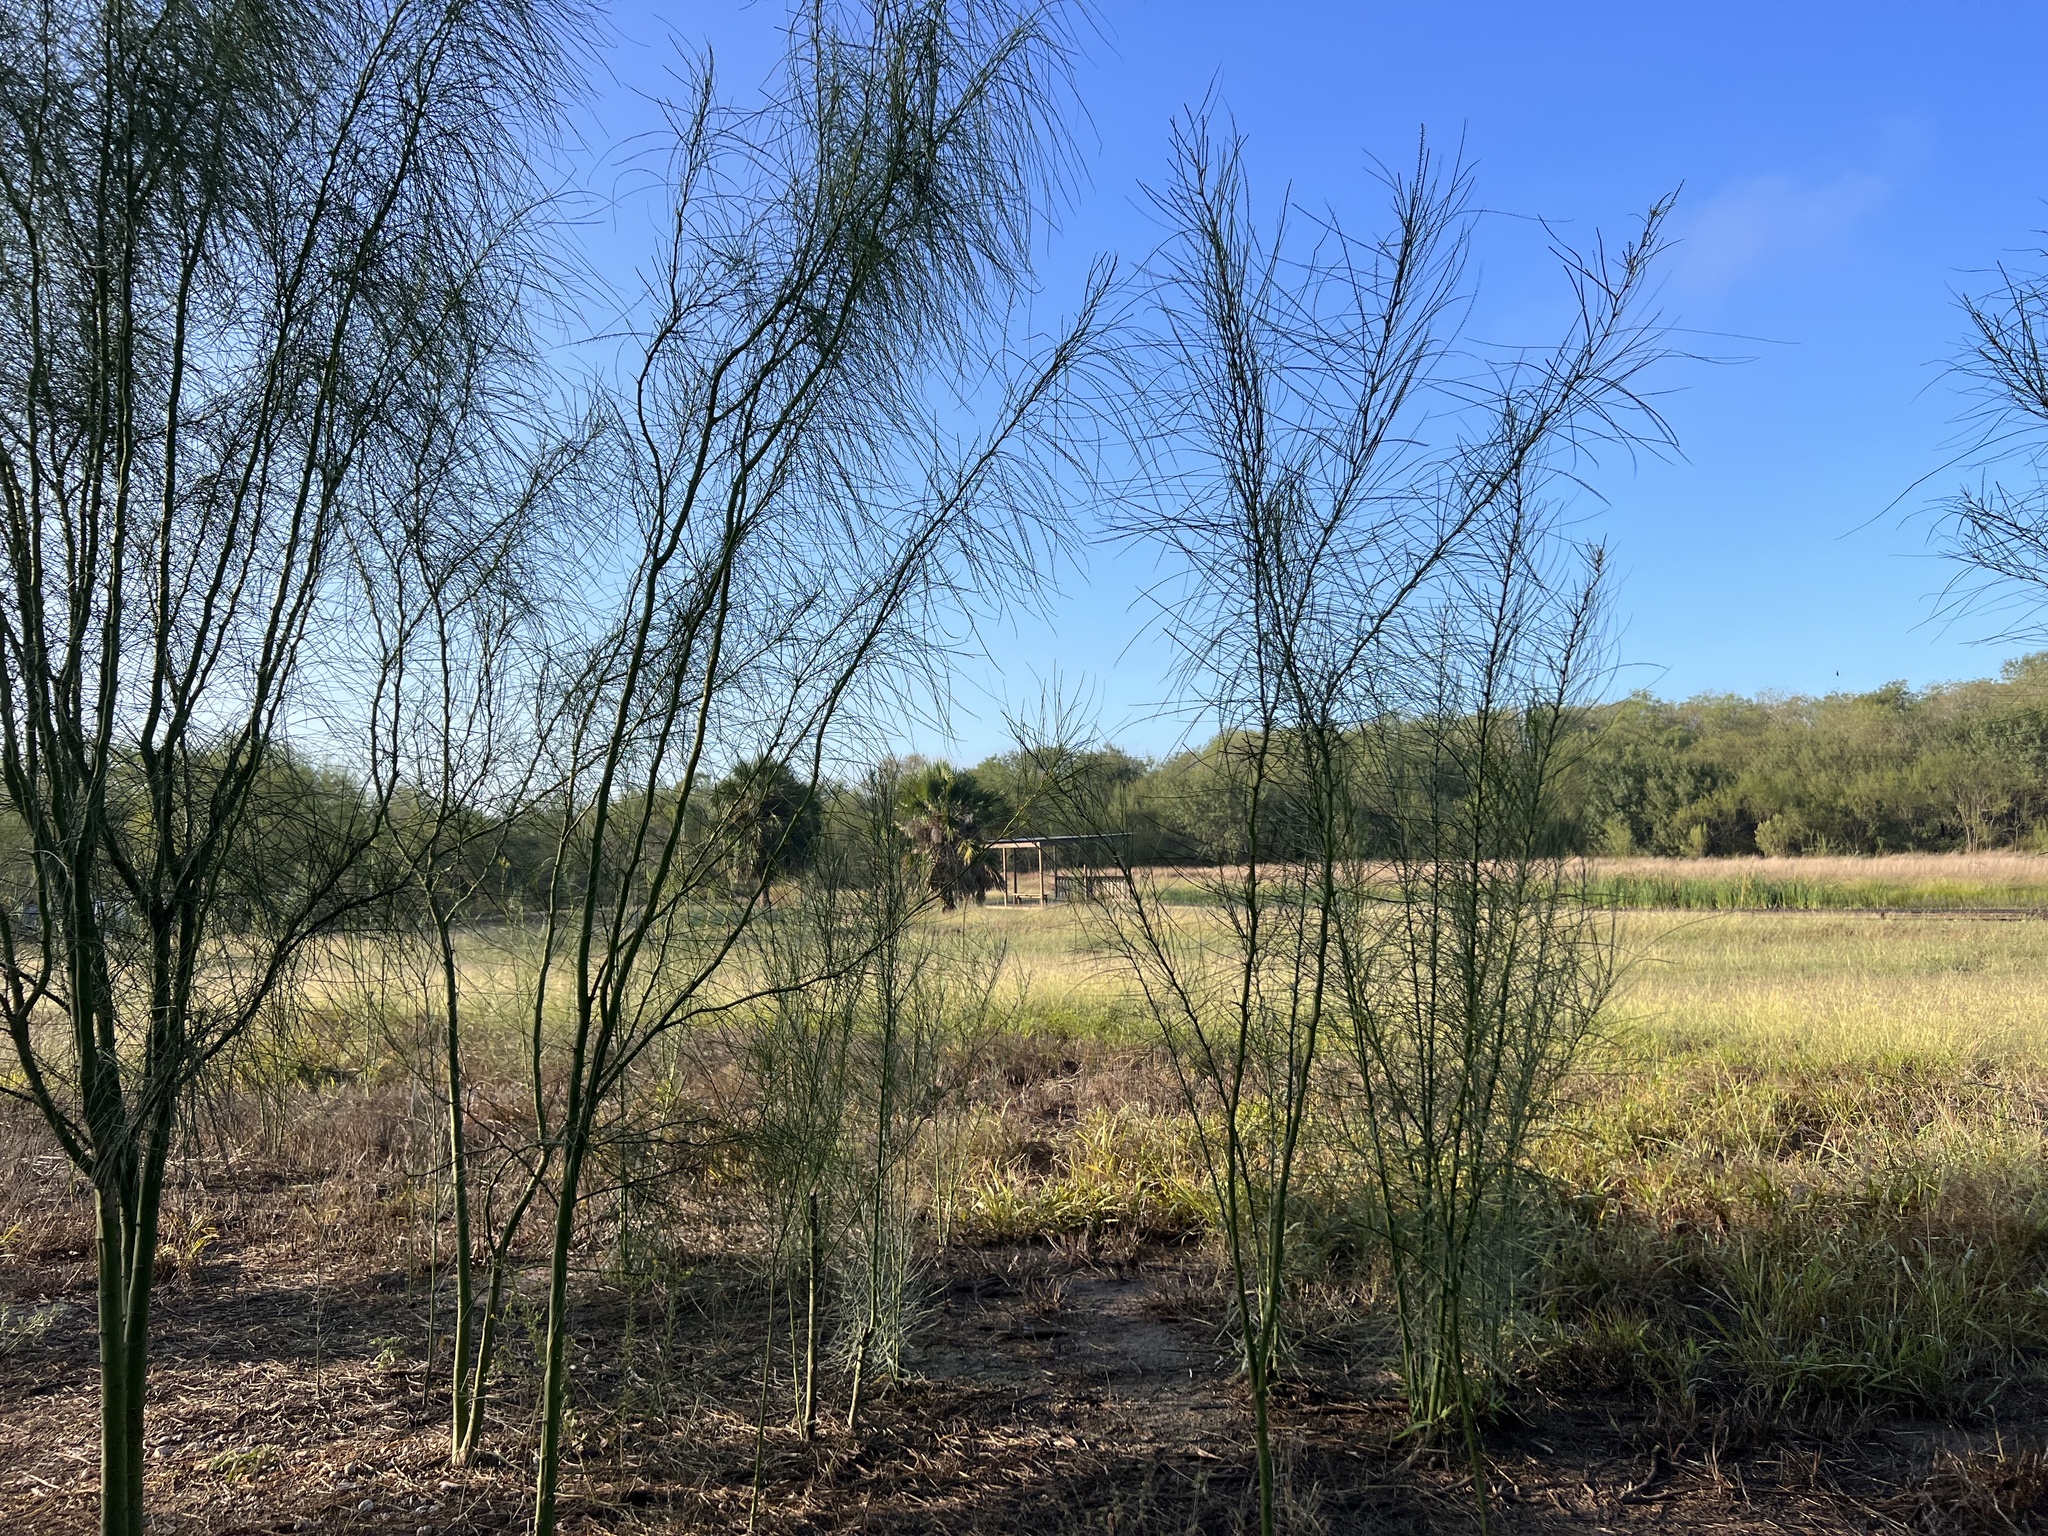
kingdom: Plantae
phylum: Tracheophyta
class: Magnoliopsida
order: Fabales
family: Fabaceae
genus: Parkinsonia
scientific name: Parkinsonia aculeata
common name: Jerusalem thorn
